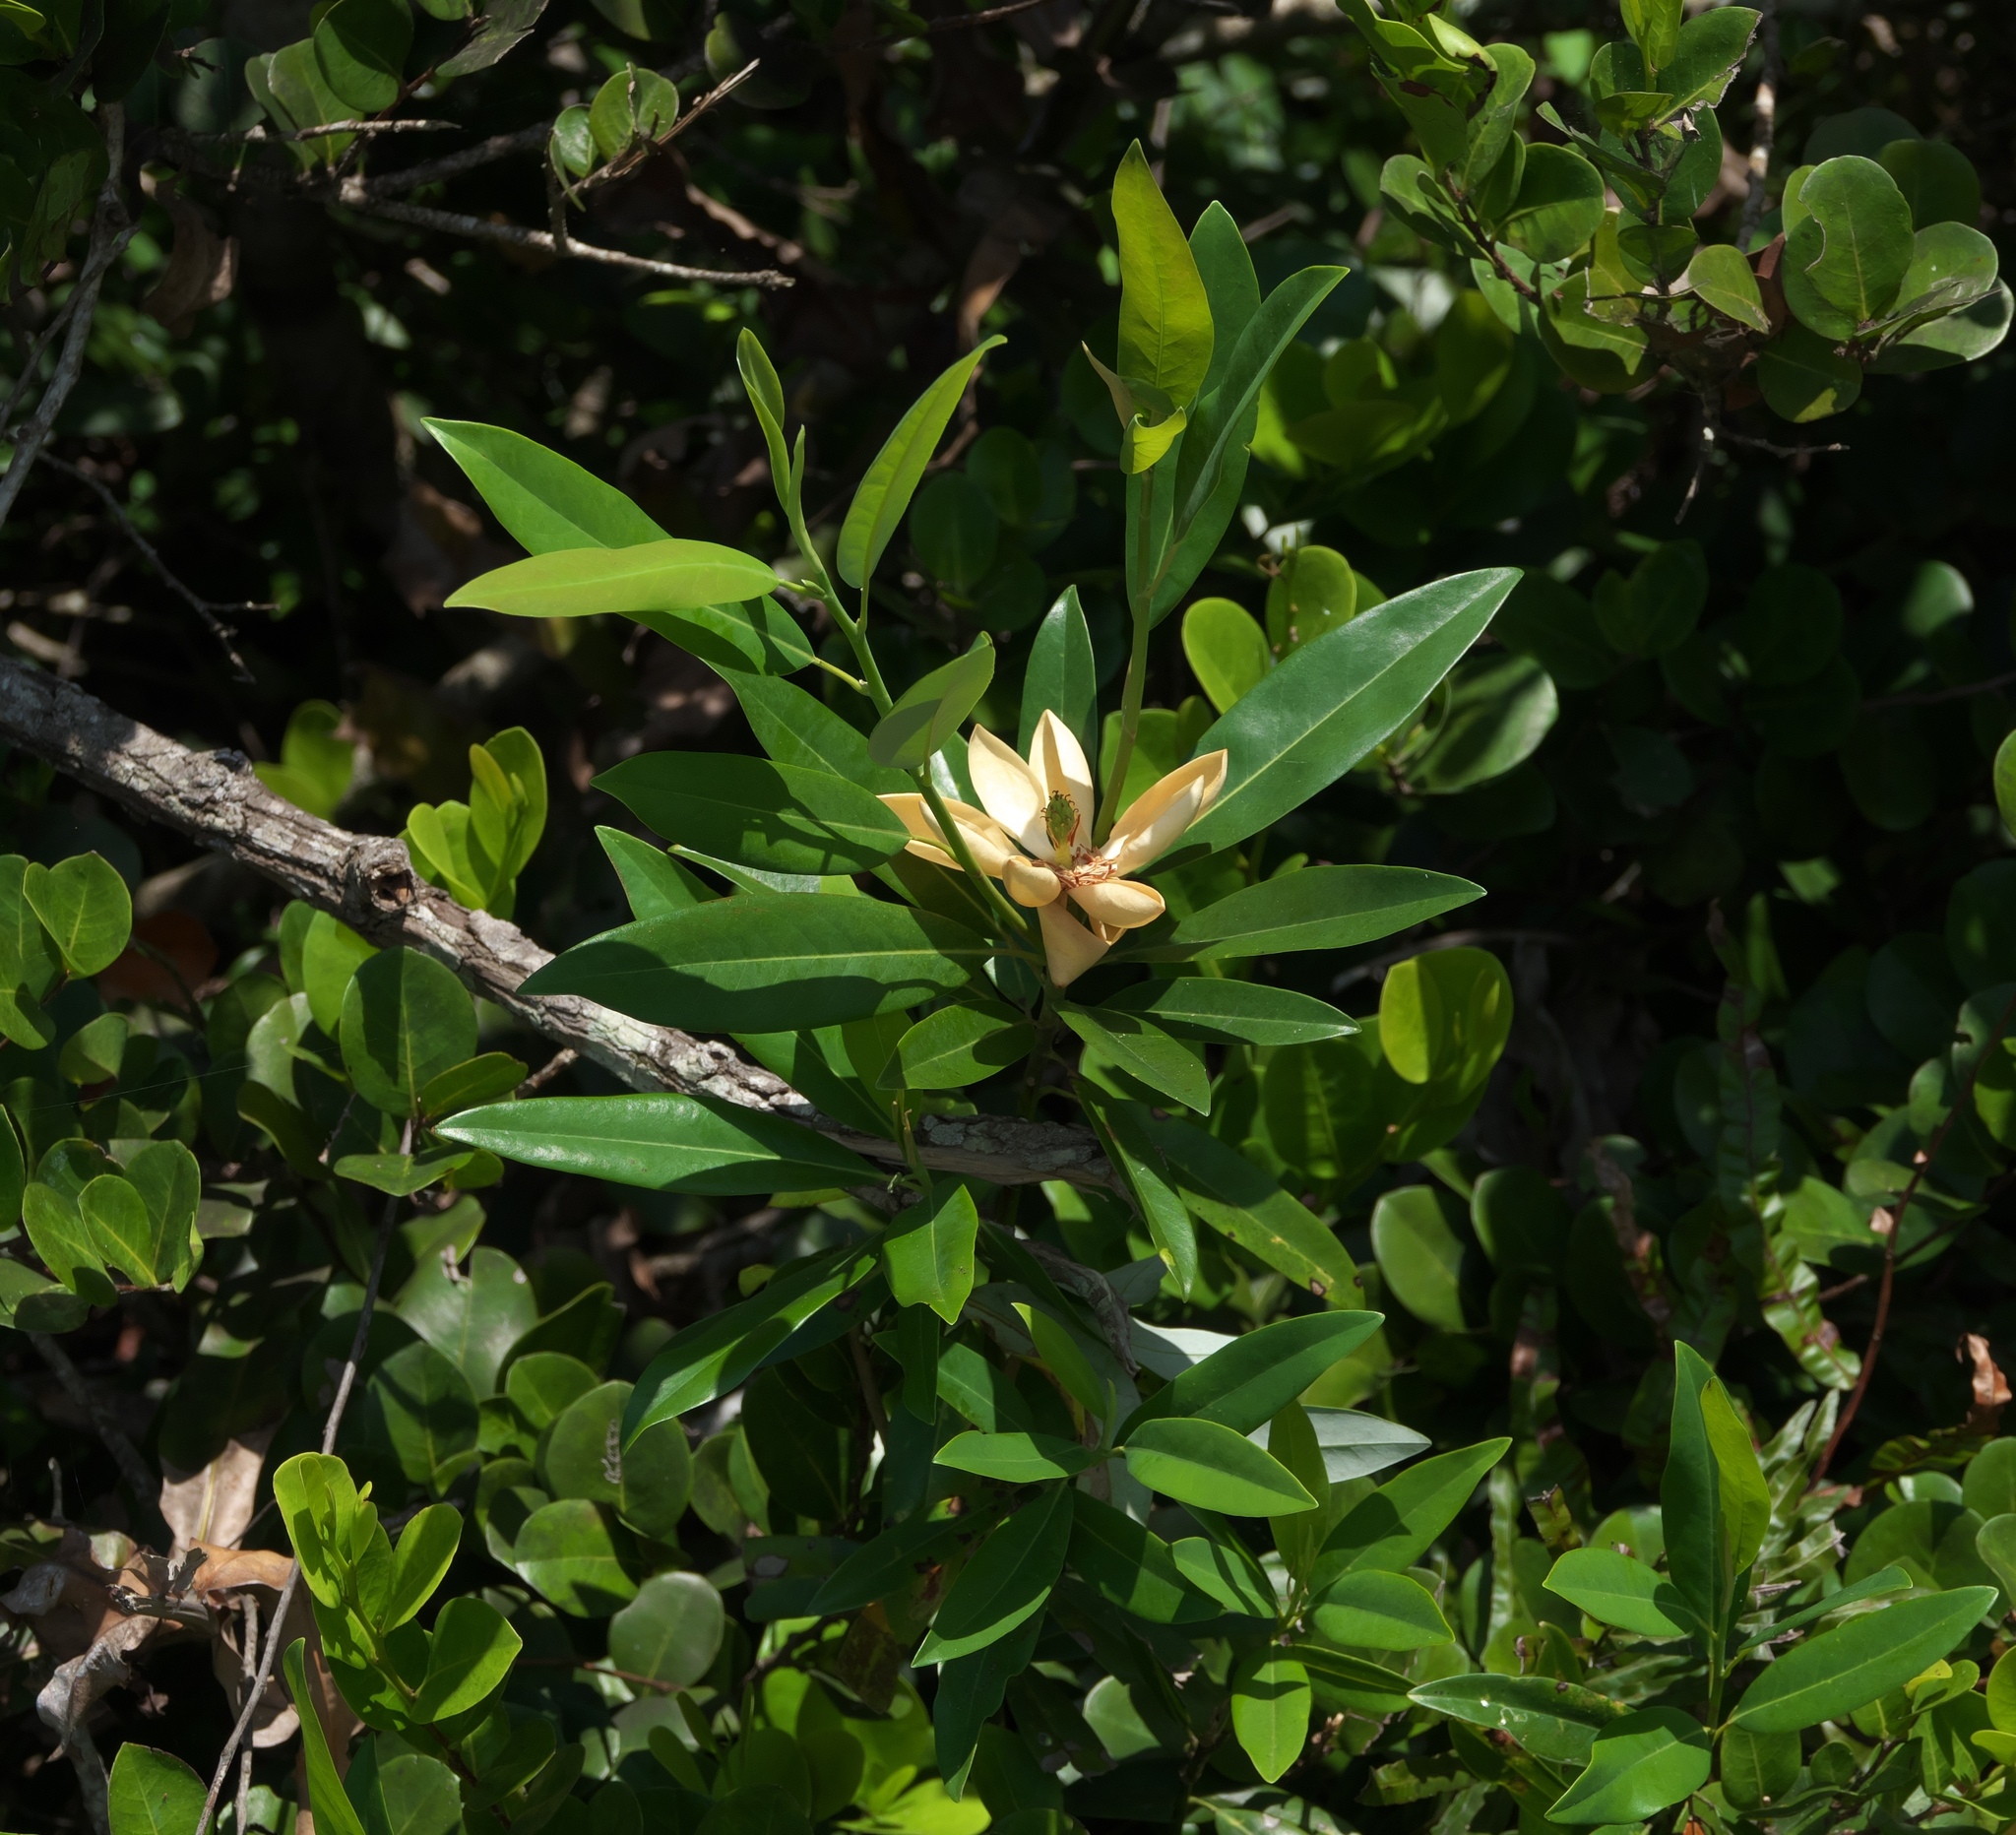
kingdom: Plantae
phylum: Tracheophyta
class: Magnoliopsida
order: Magnoliales
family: Magnoliaceae
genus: Magnolia
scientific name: Magnolia virginiana
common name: Swamp bay
